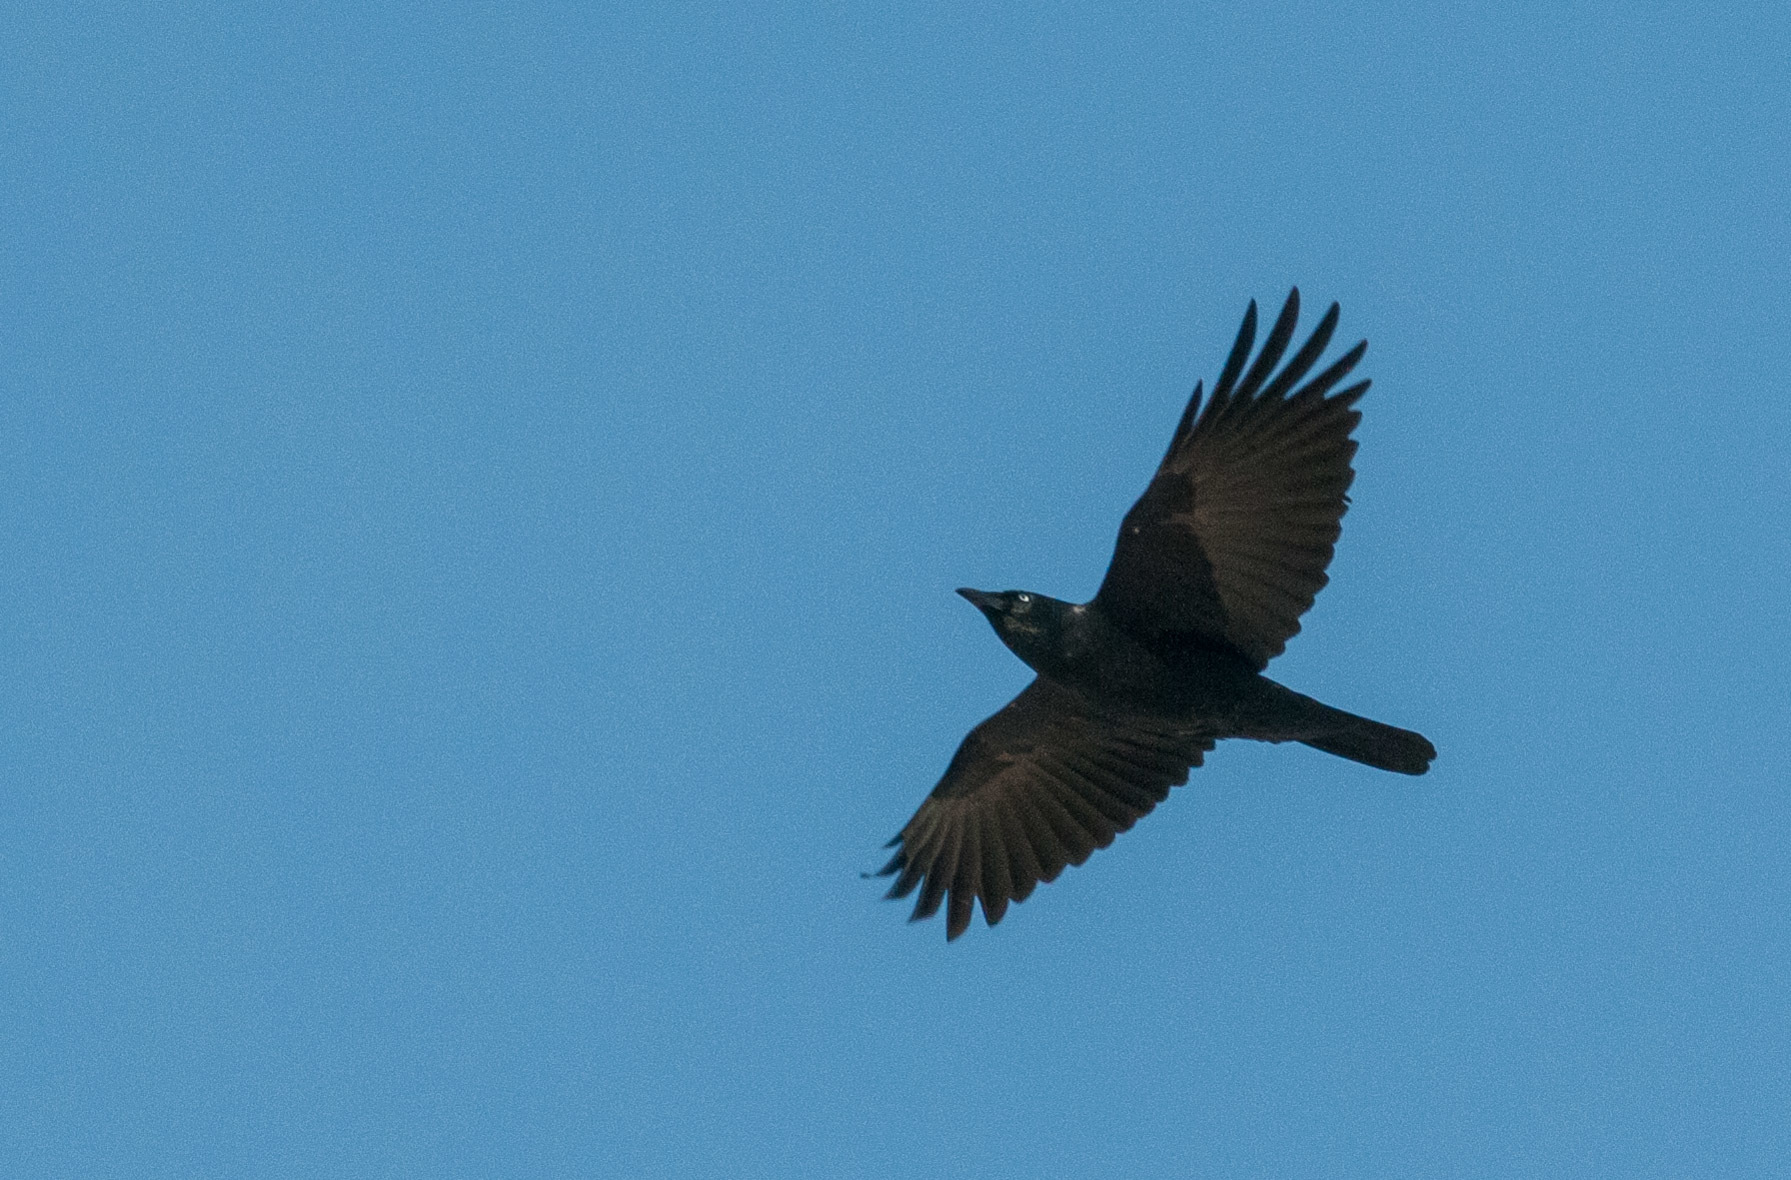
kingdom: Animalia
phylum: Chordata
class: Aves
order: Passeriformes
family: Corvidae
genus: Corvus
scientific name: Corvus mellori
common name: Little raven
